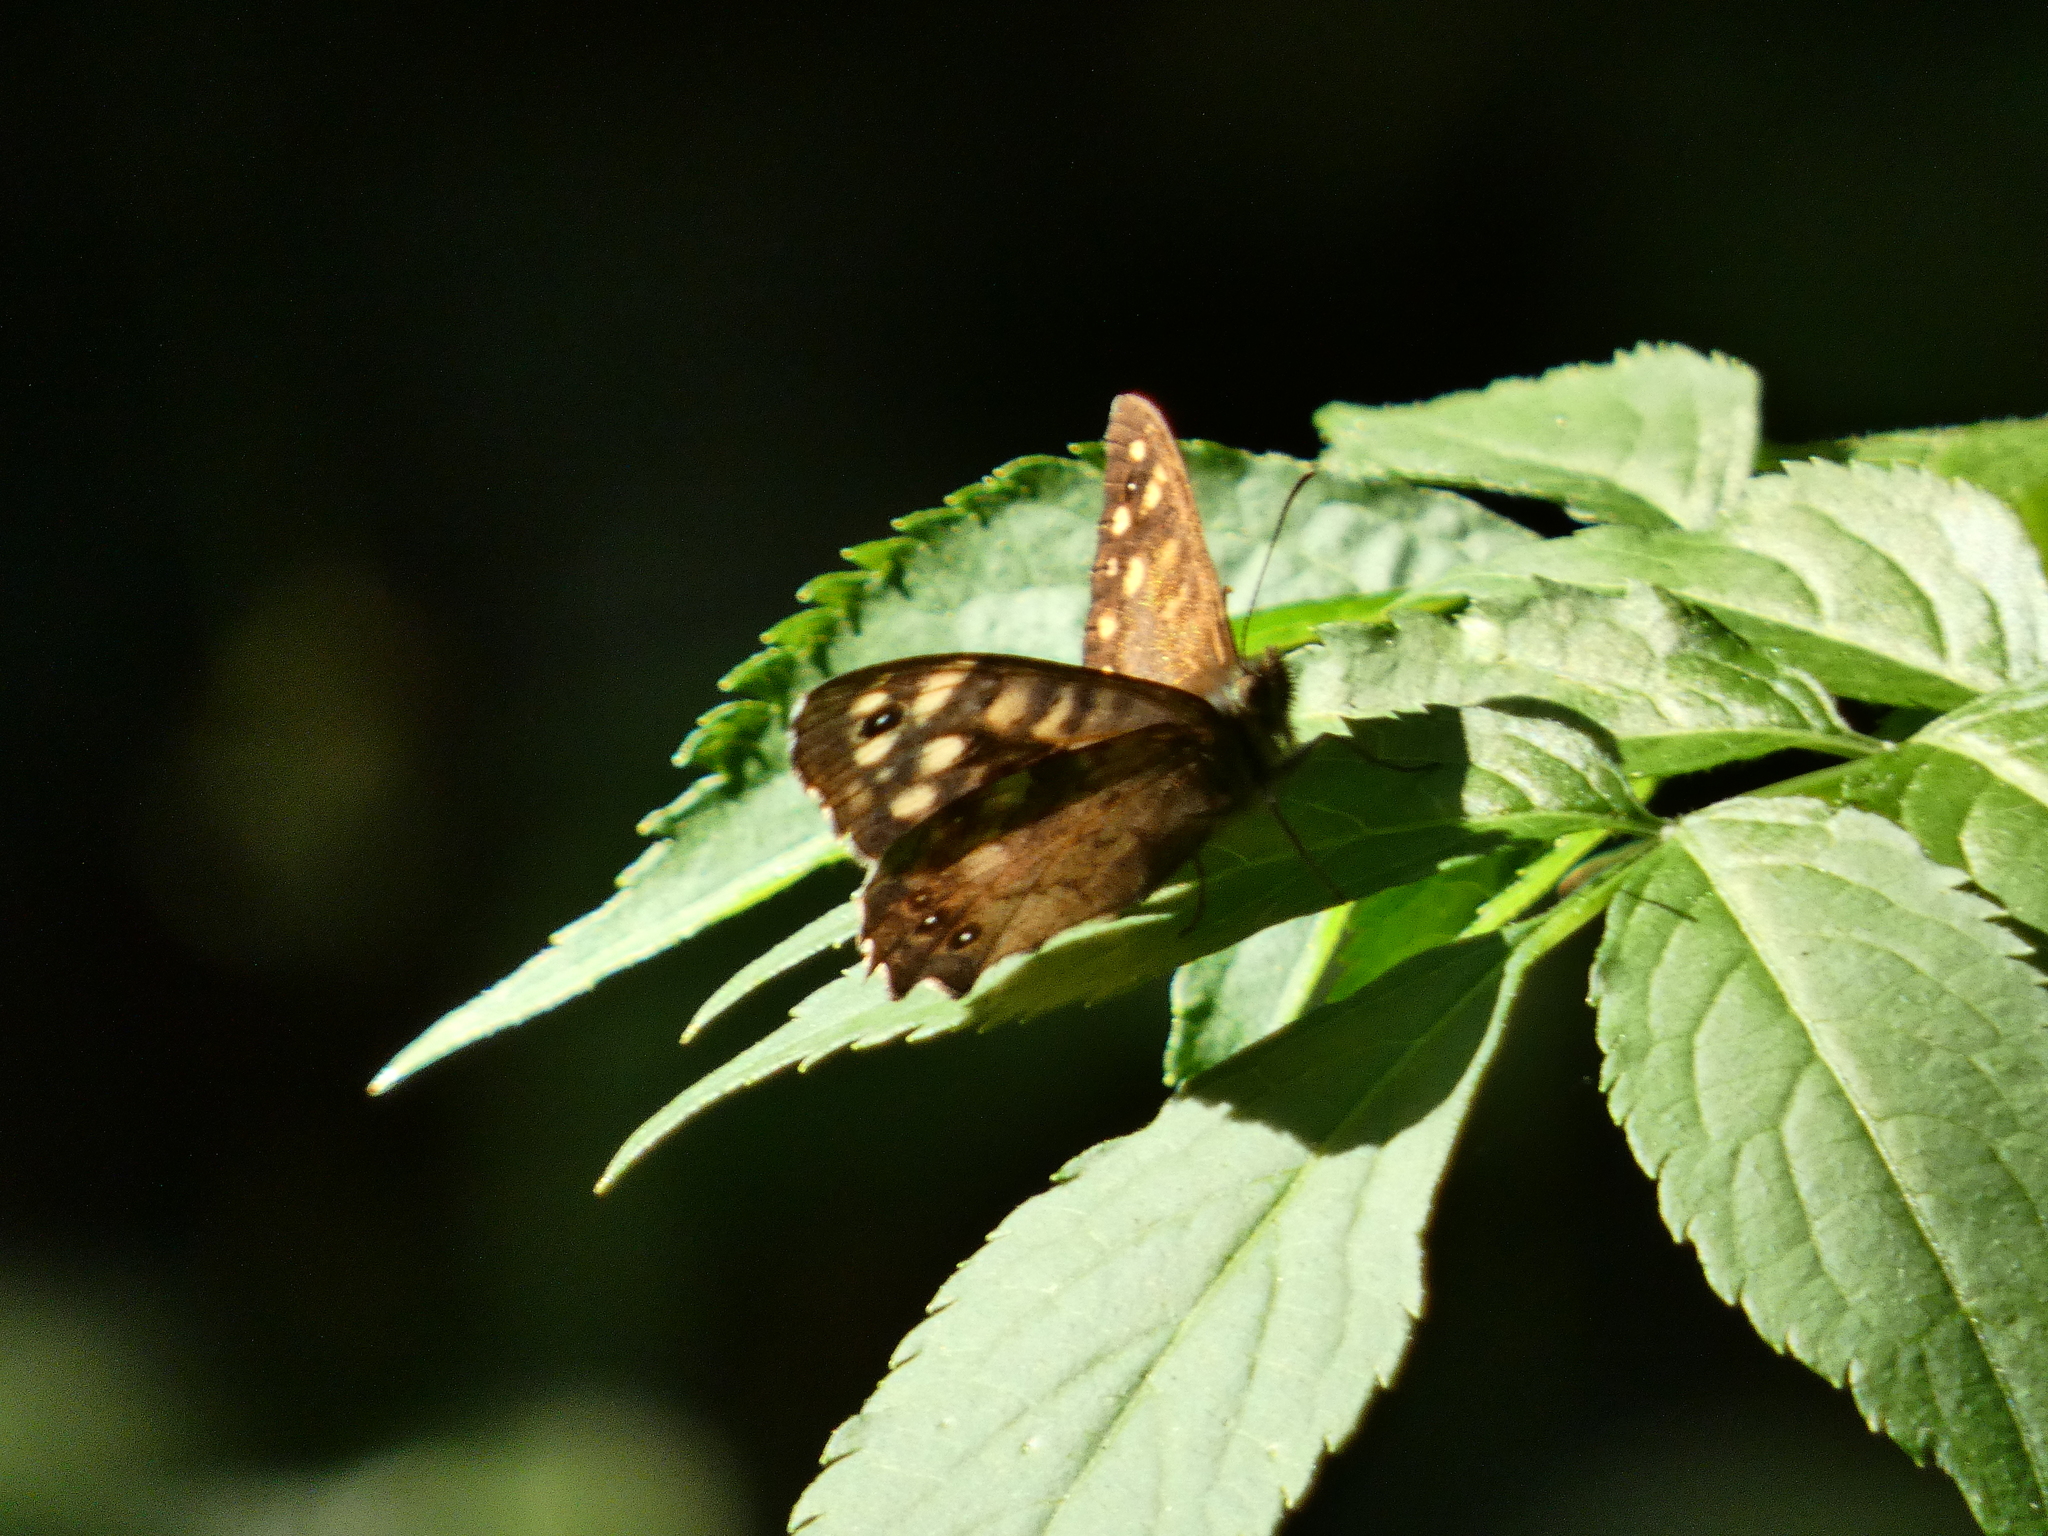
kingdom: Animalia
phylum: Arthropoda
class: Insecta
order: Lepidoptera
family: Nymphalidae
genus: Pararge
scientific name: Pararge aegeria
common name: Speckled wood
